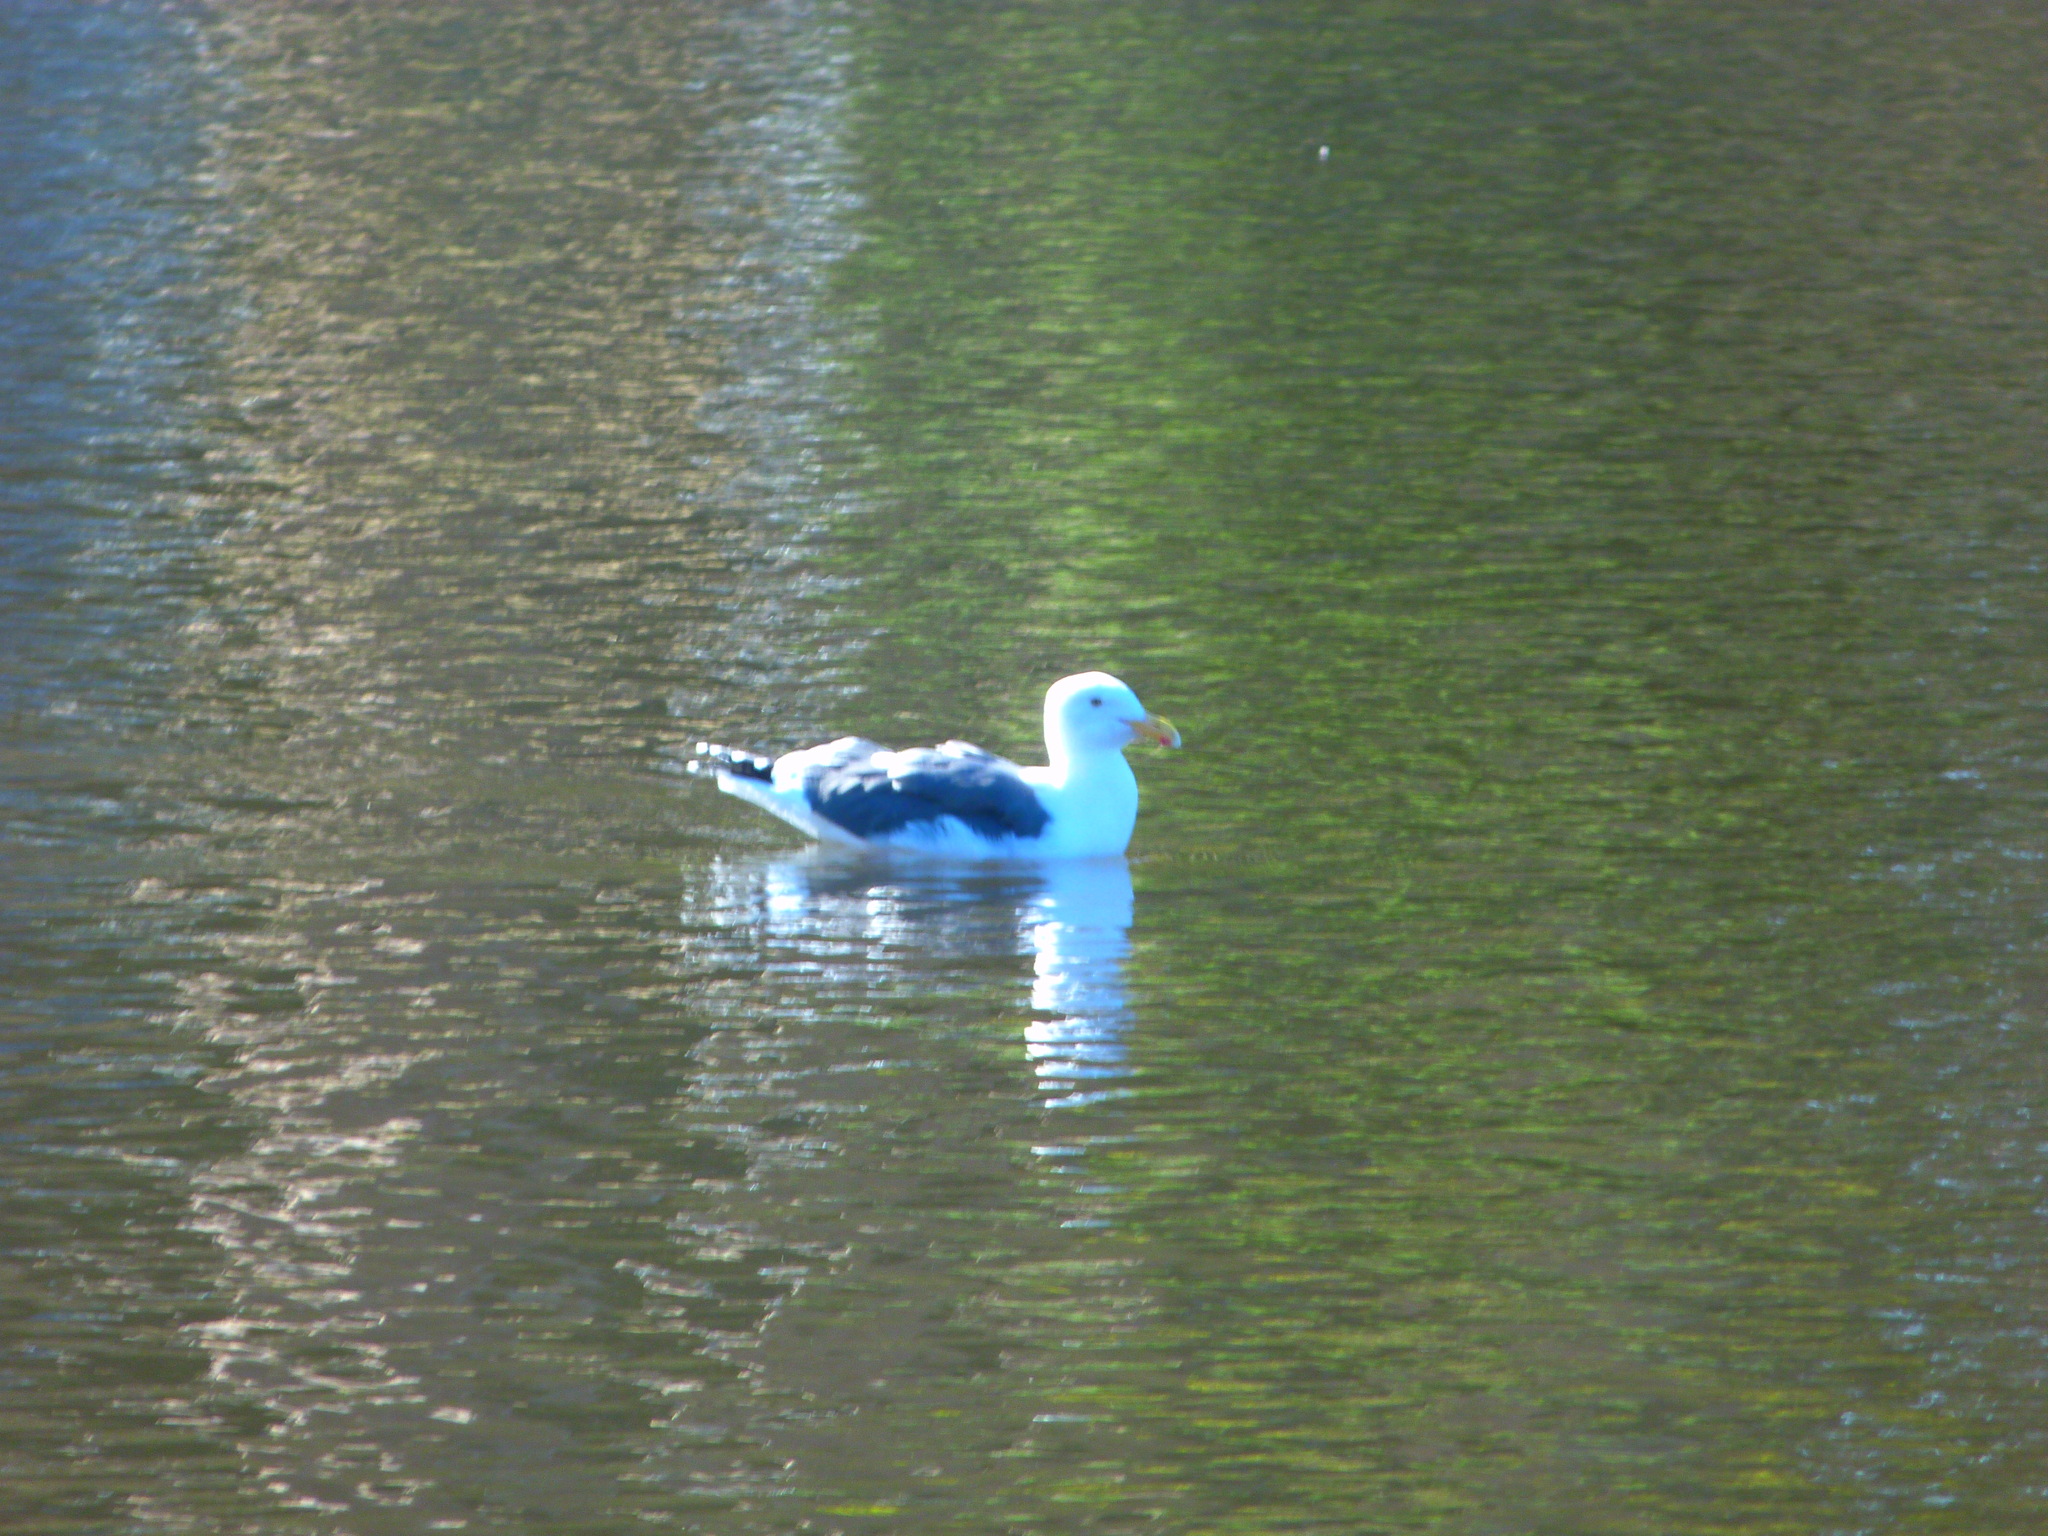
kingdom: Animalia
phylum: Chordata
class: Aves
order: Charadriiformes
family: Laridae
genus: Larus
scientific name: Larus occidentalis
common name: Western gull
